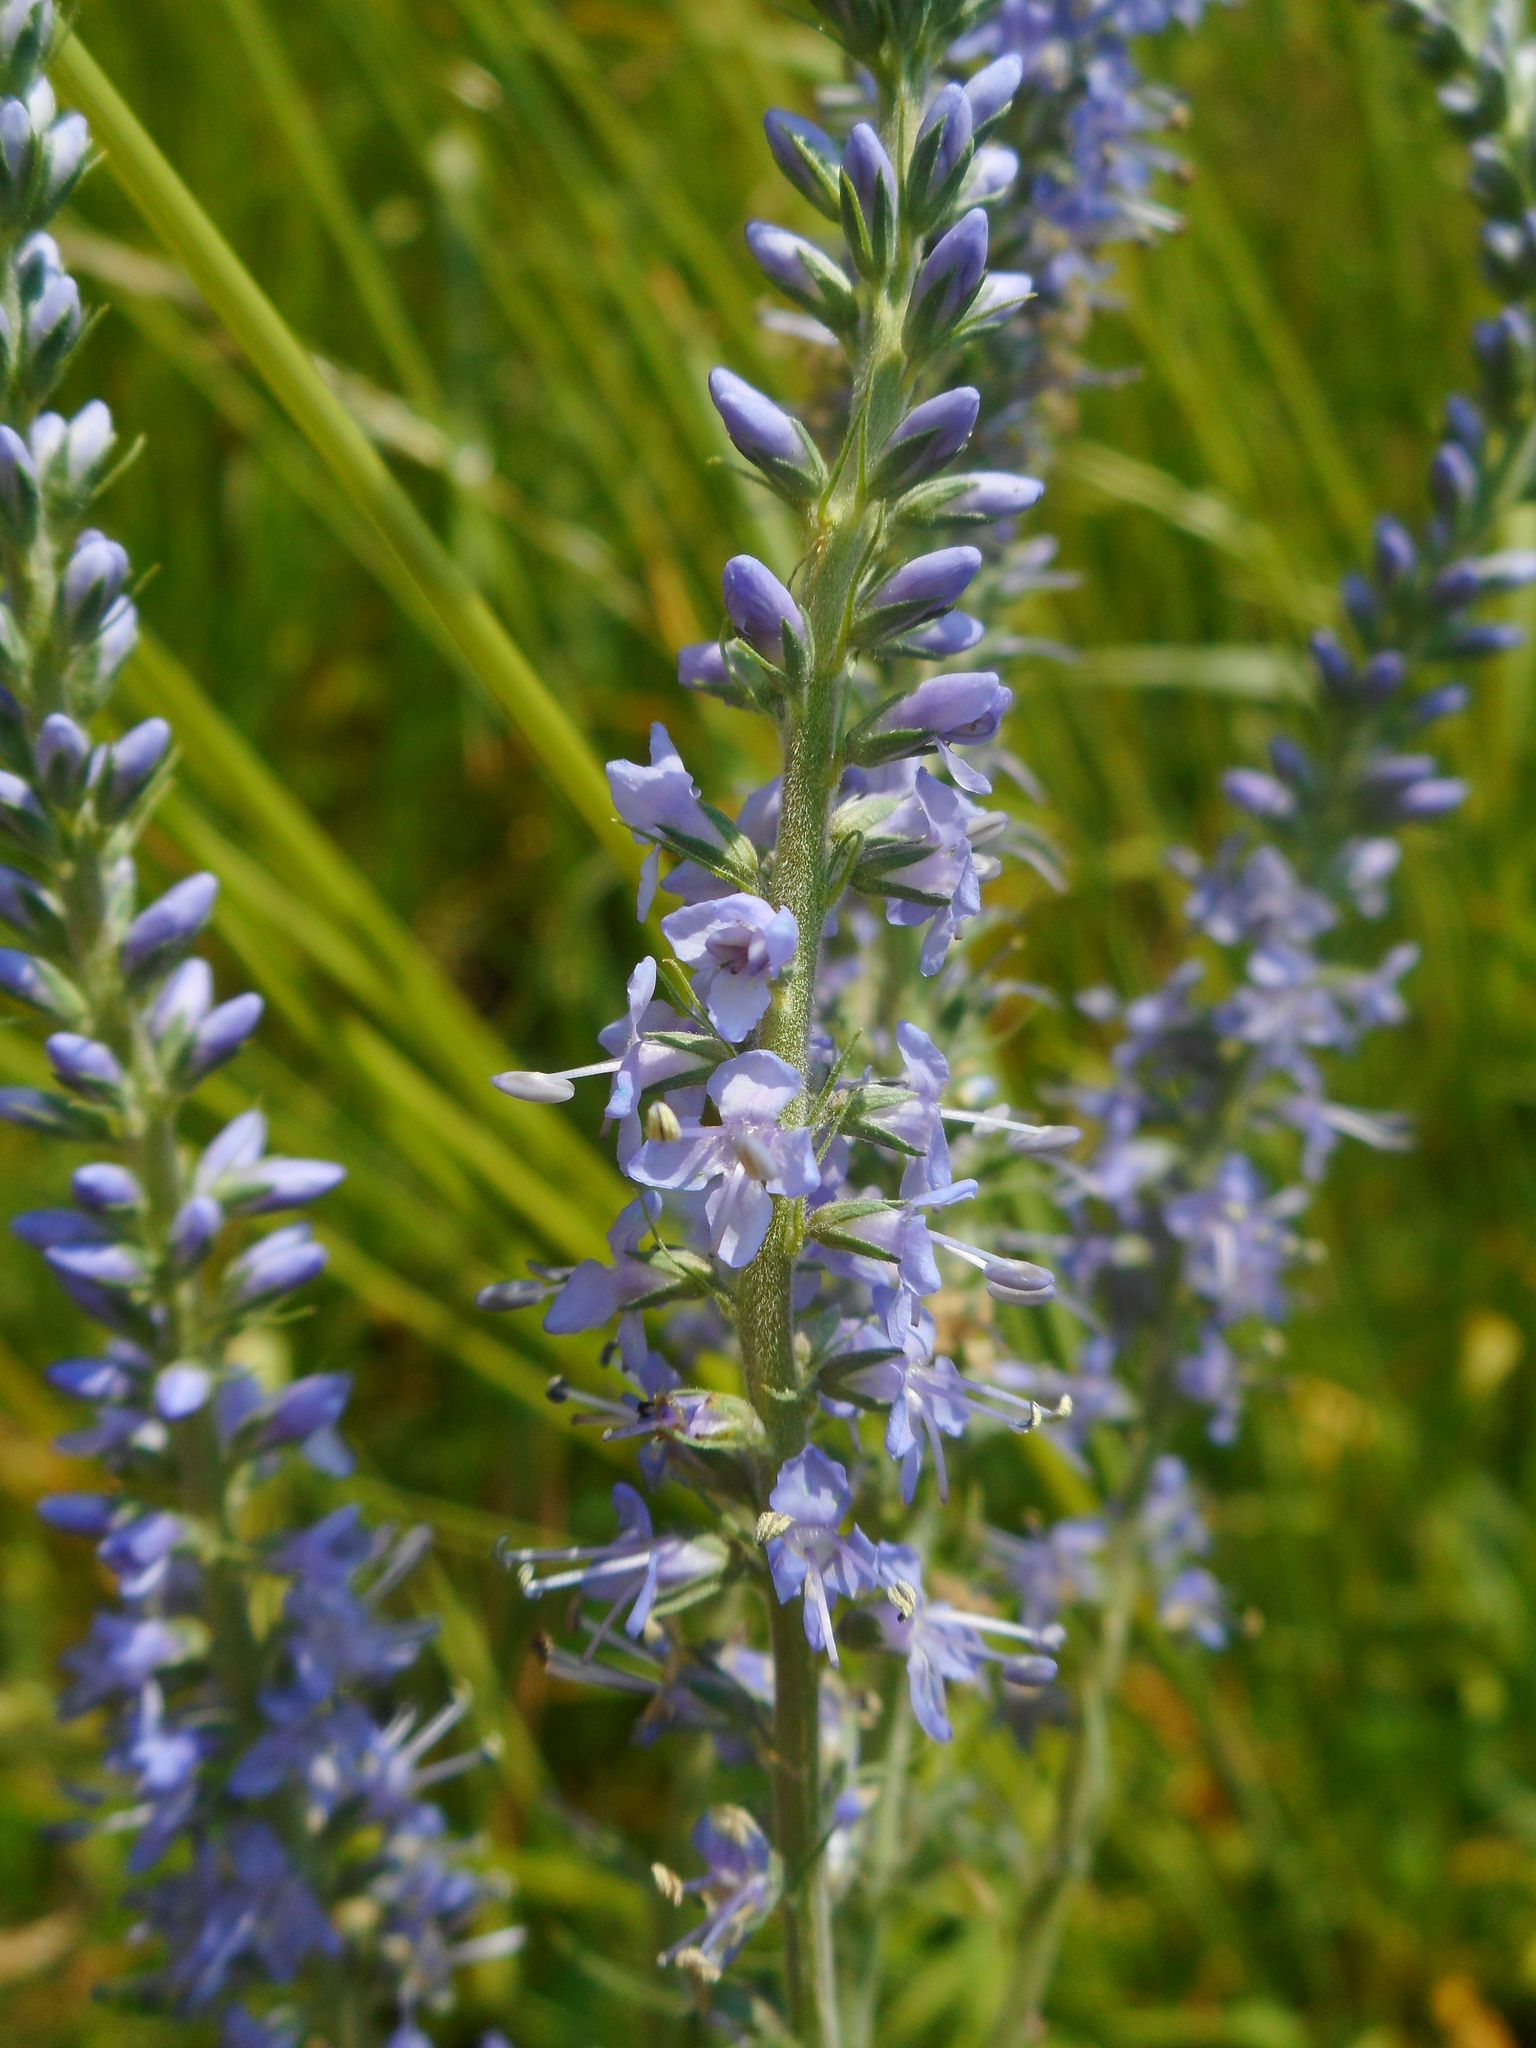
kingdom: Plantae
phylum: Tracheophyta
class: Magnoliopsida
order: Lamiales
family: Plantaginaceae
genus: Veronica
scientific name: Veronica longifolia
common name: Garden speedwell
